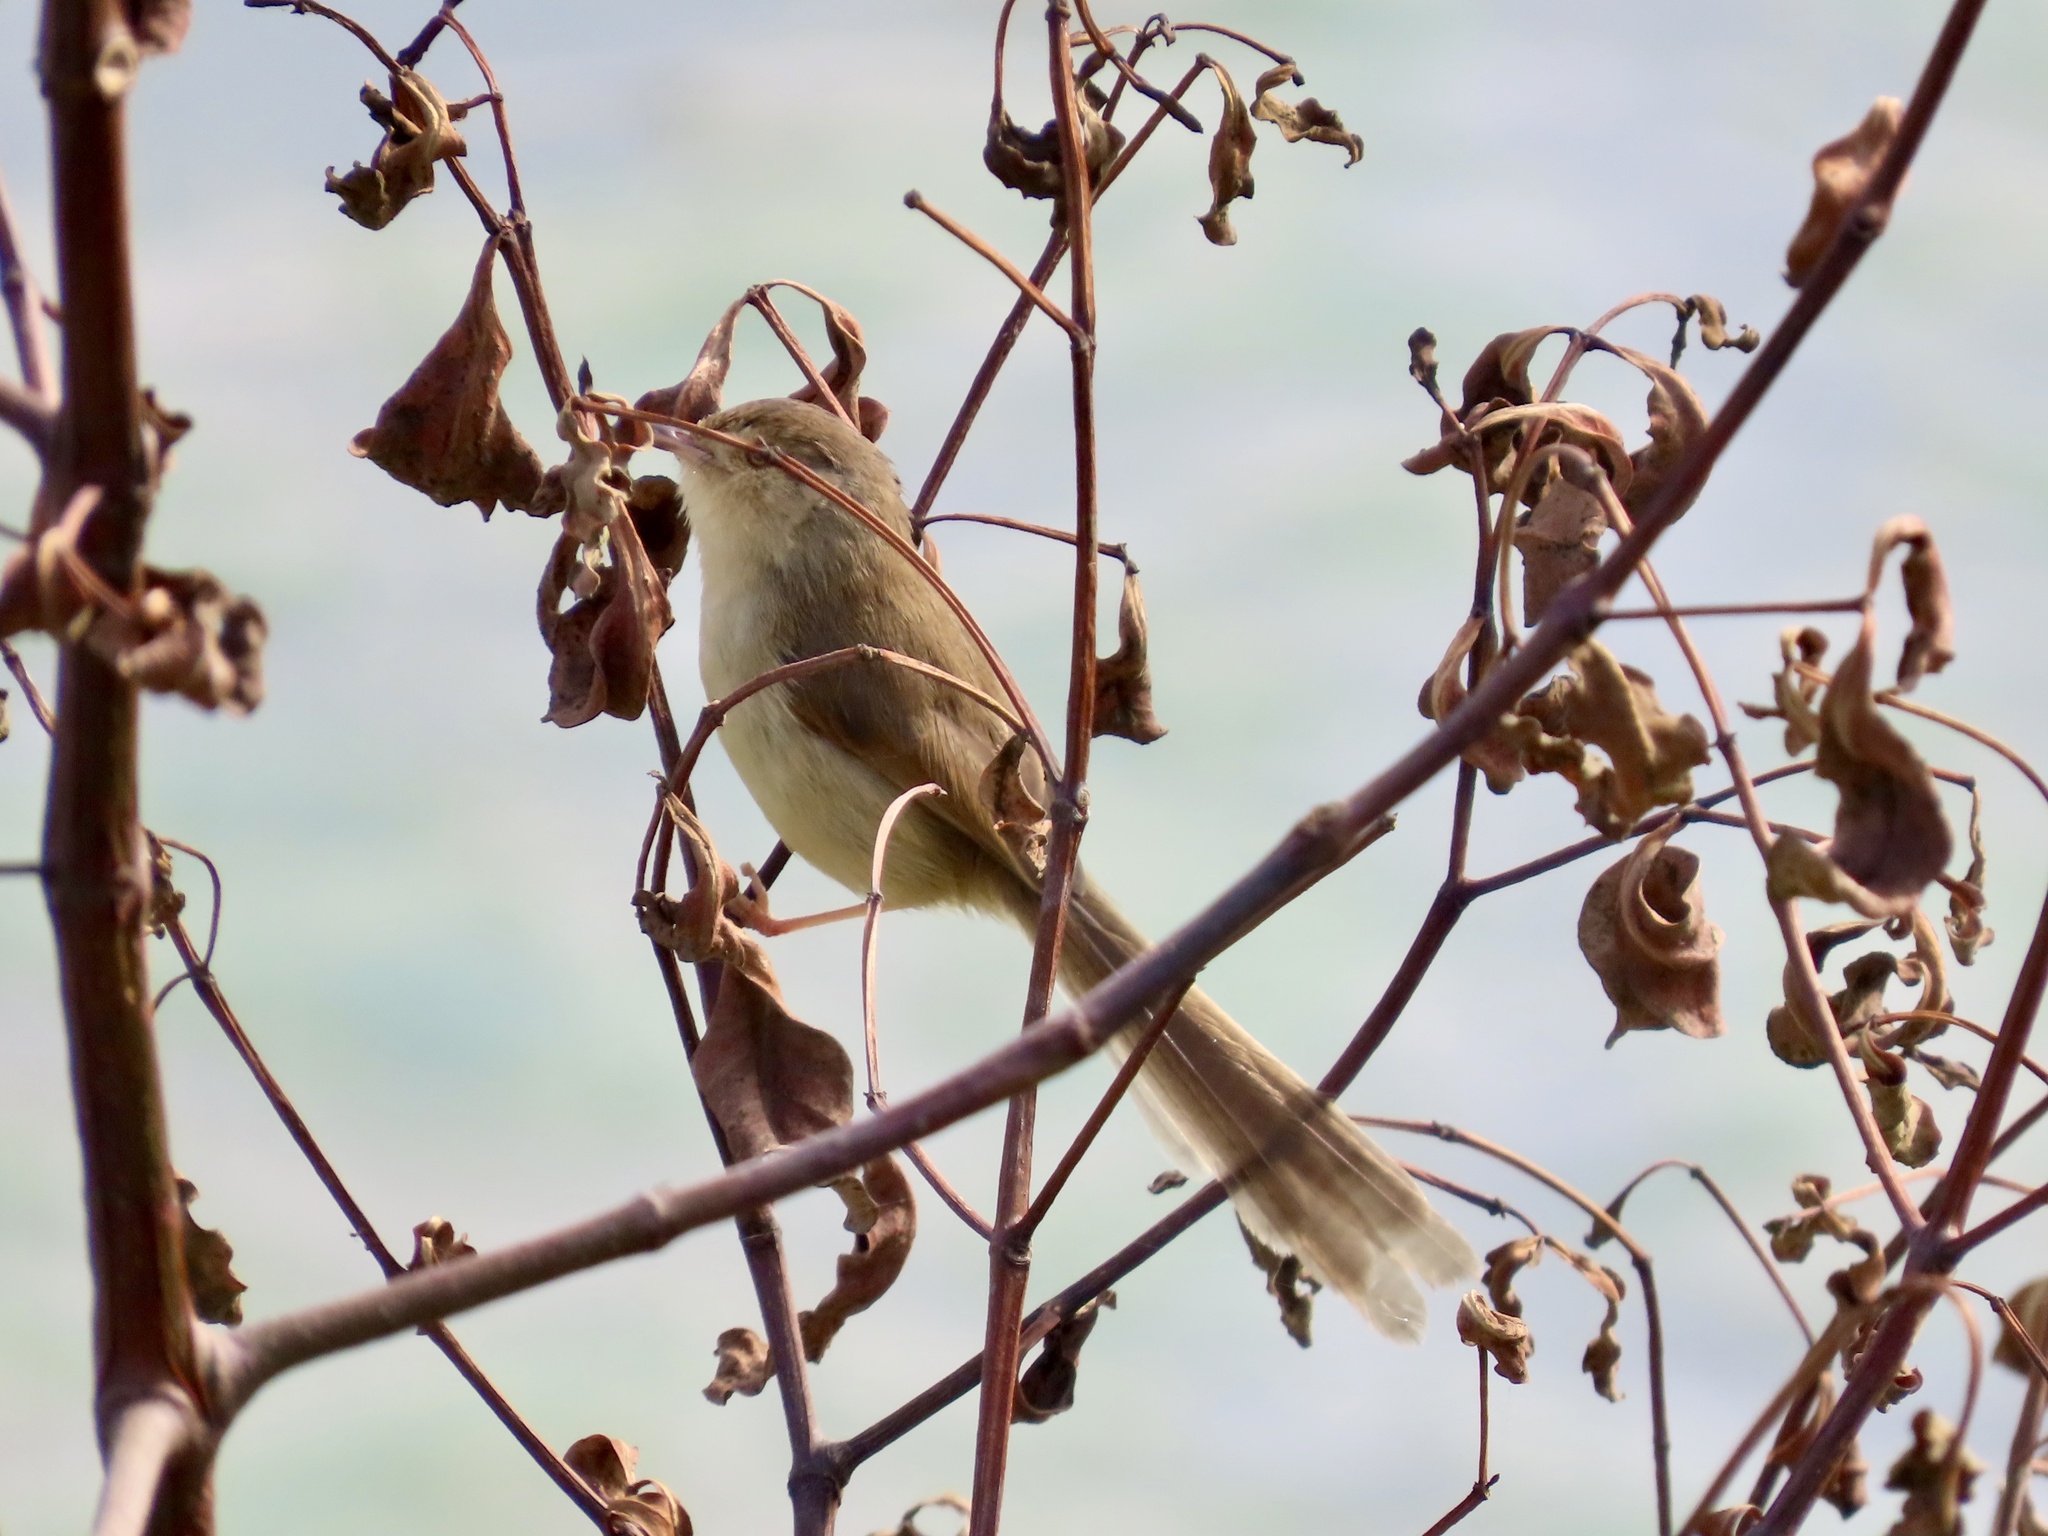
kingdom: Animalia
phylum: Chordata
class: Aves
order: Passeriformes
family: Cisticolidae
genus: Prinia
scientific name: Prinia inornata
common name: Plain prinia
